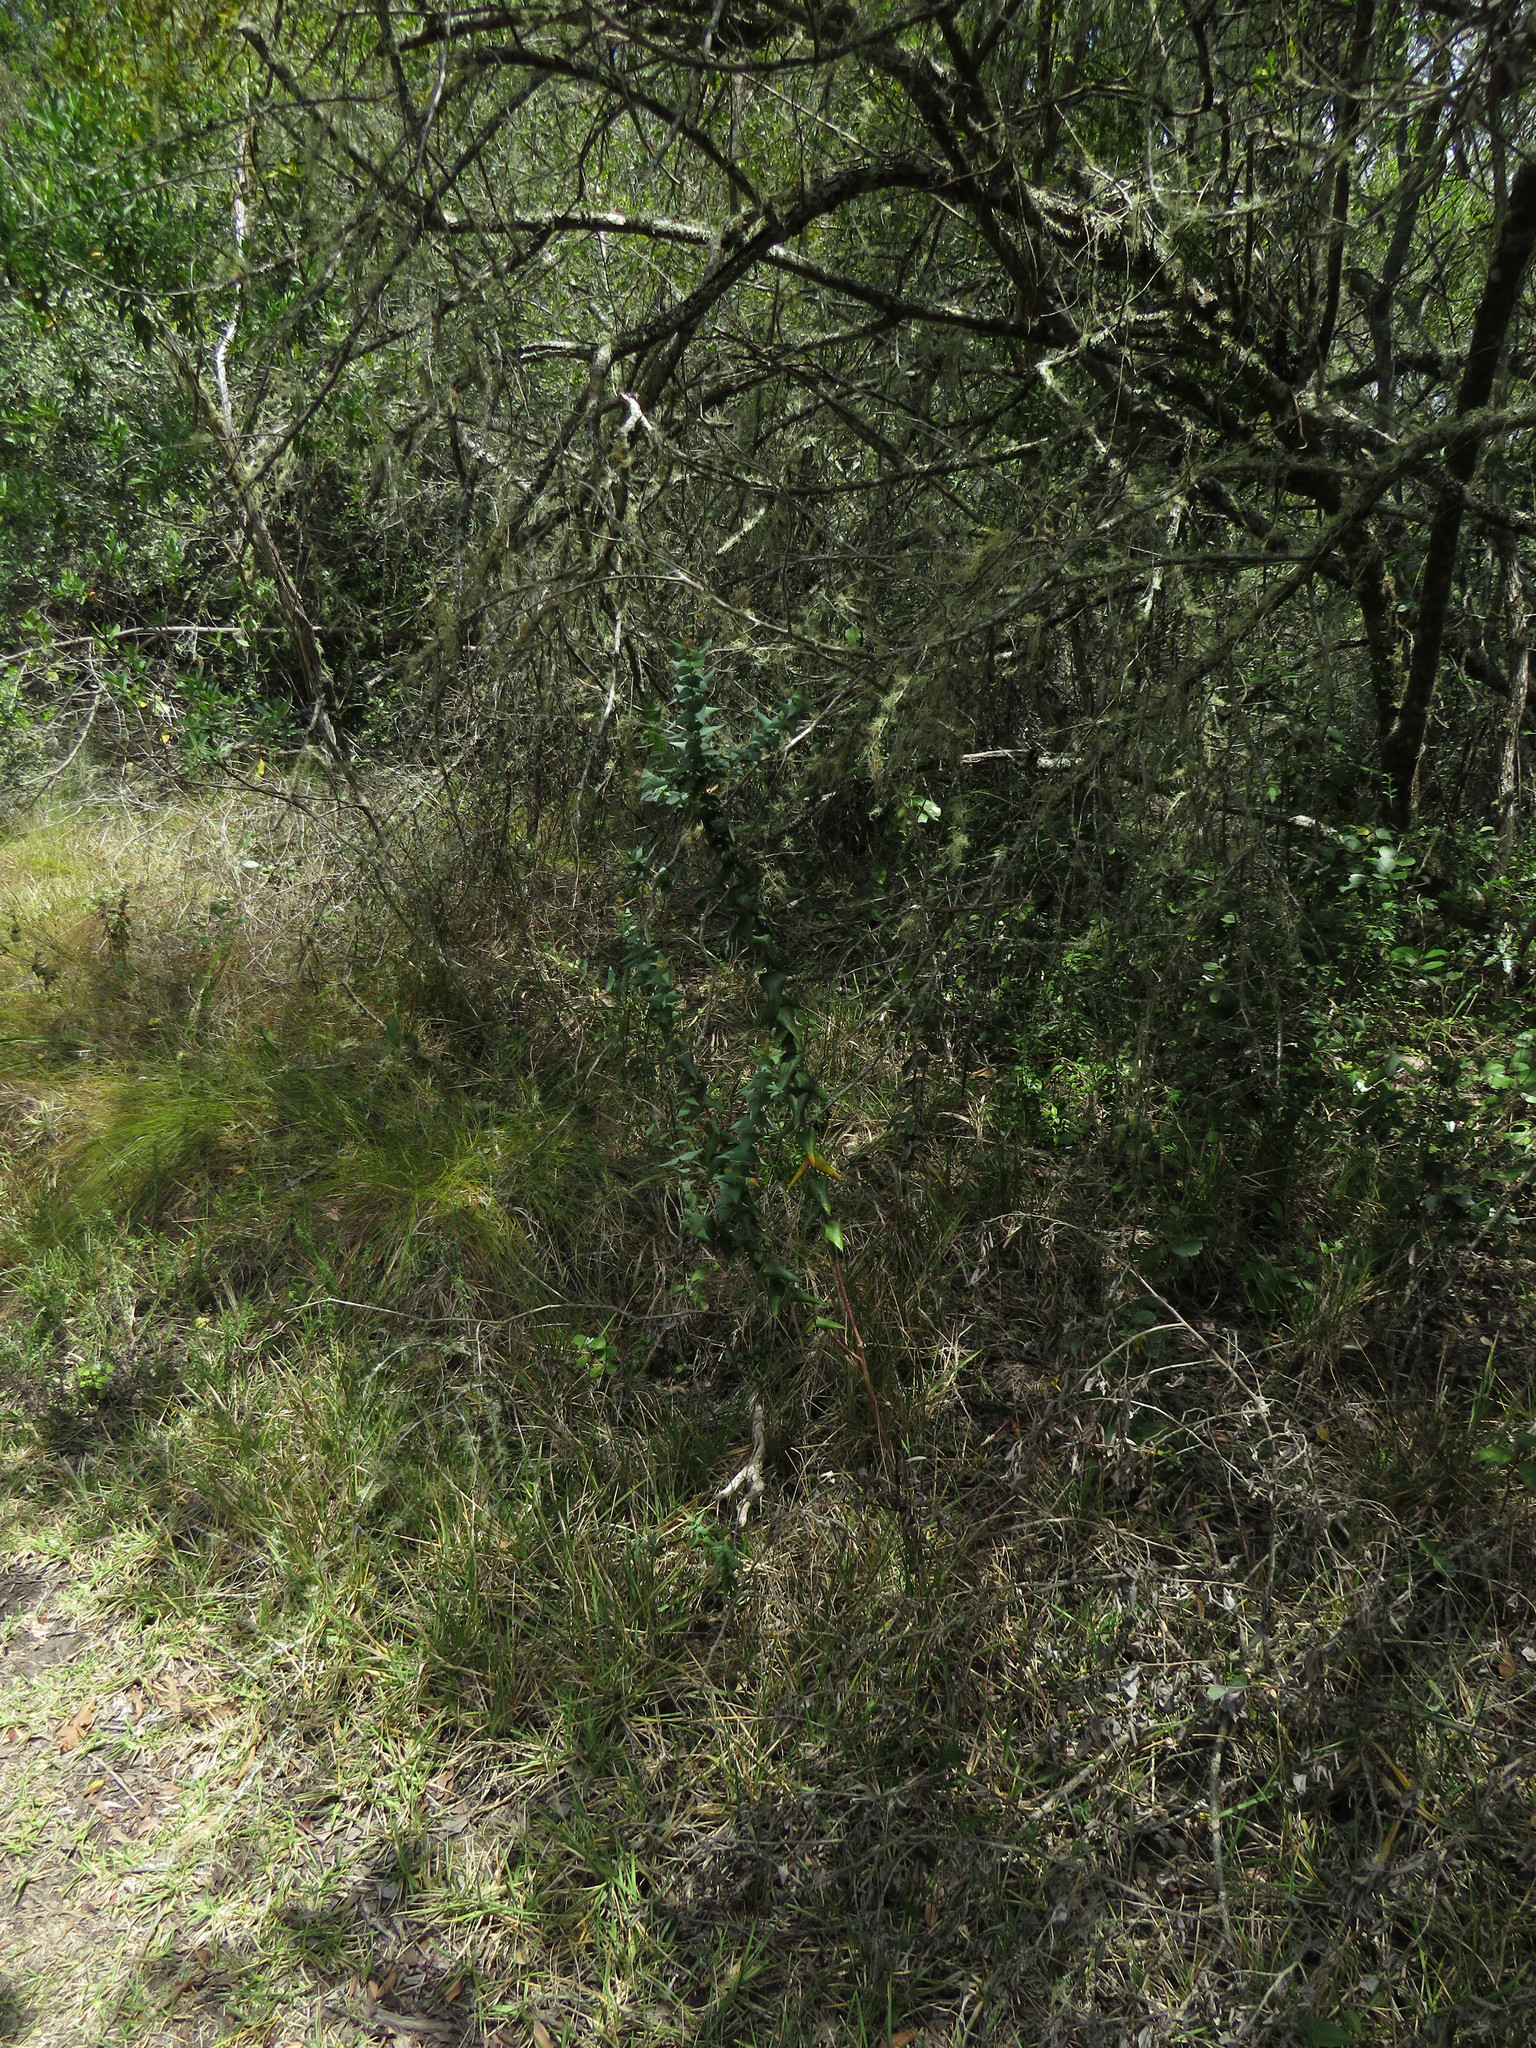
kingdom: Plantae
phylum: Tracheophyta
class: Magnoliopsida
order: Fabales
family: Polygalaceae
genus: Polygala
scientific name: Polygala fruticosa
